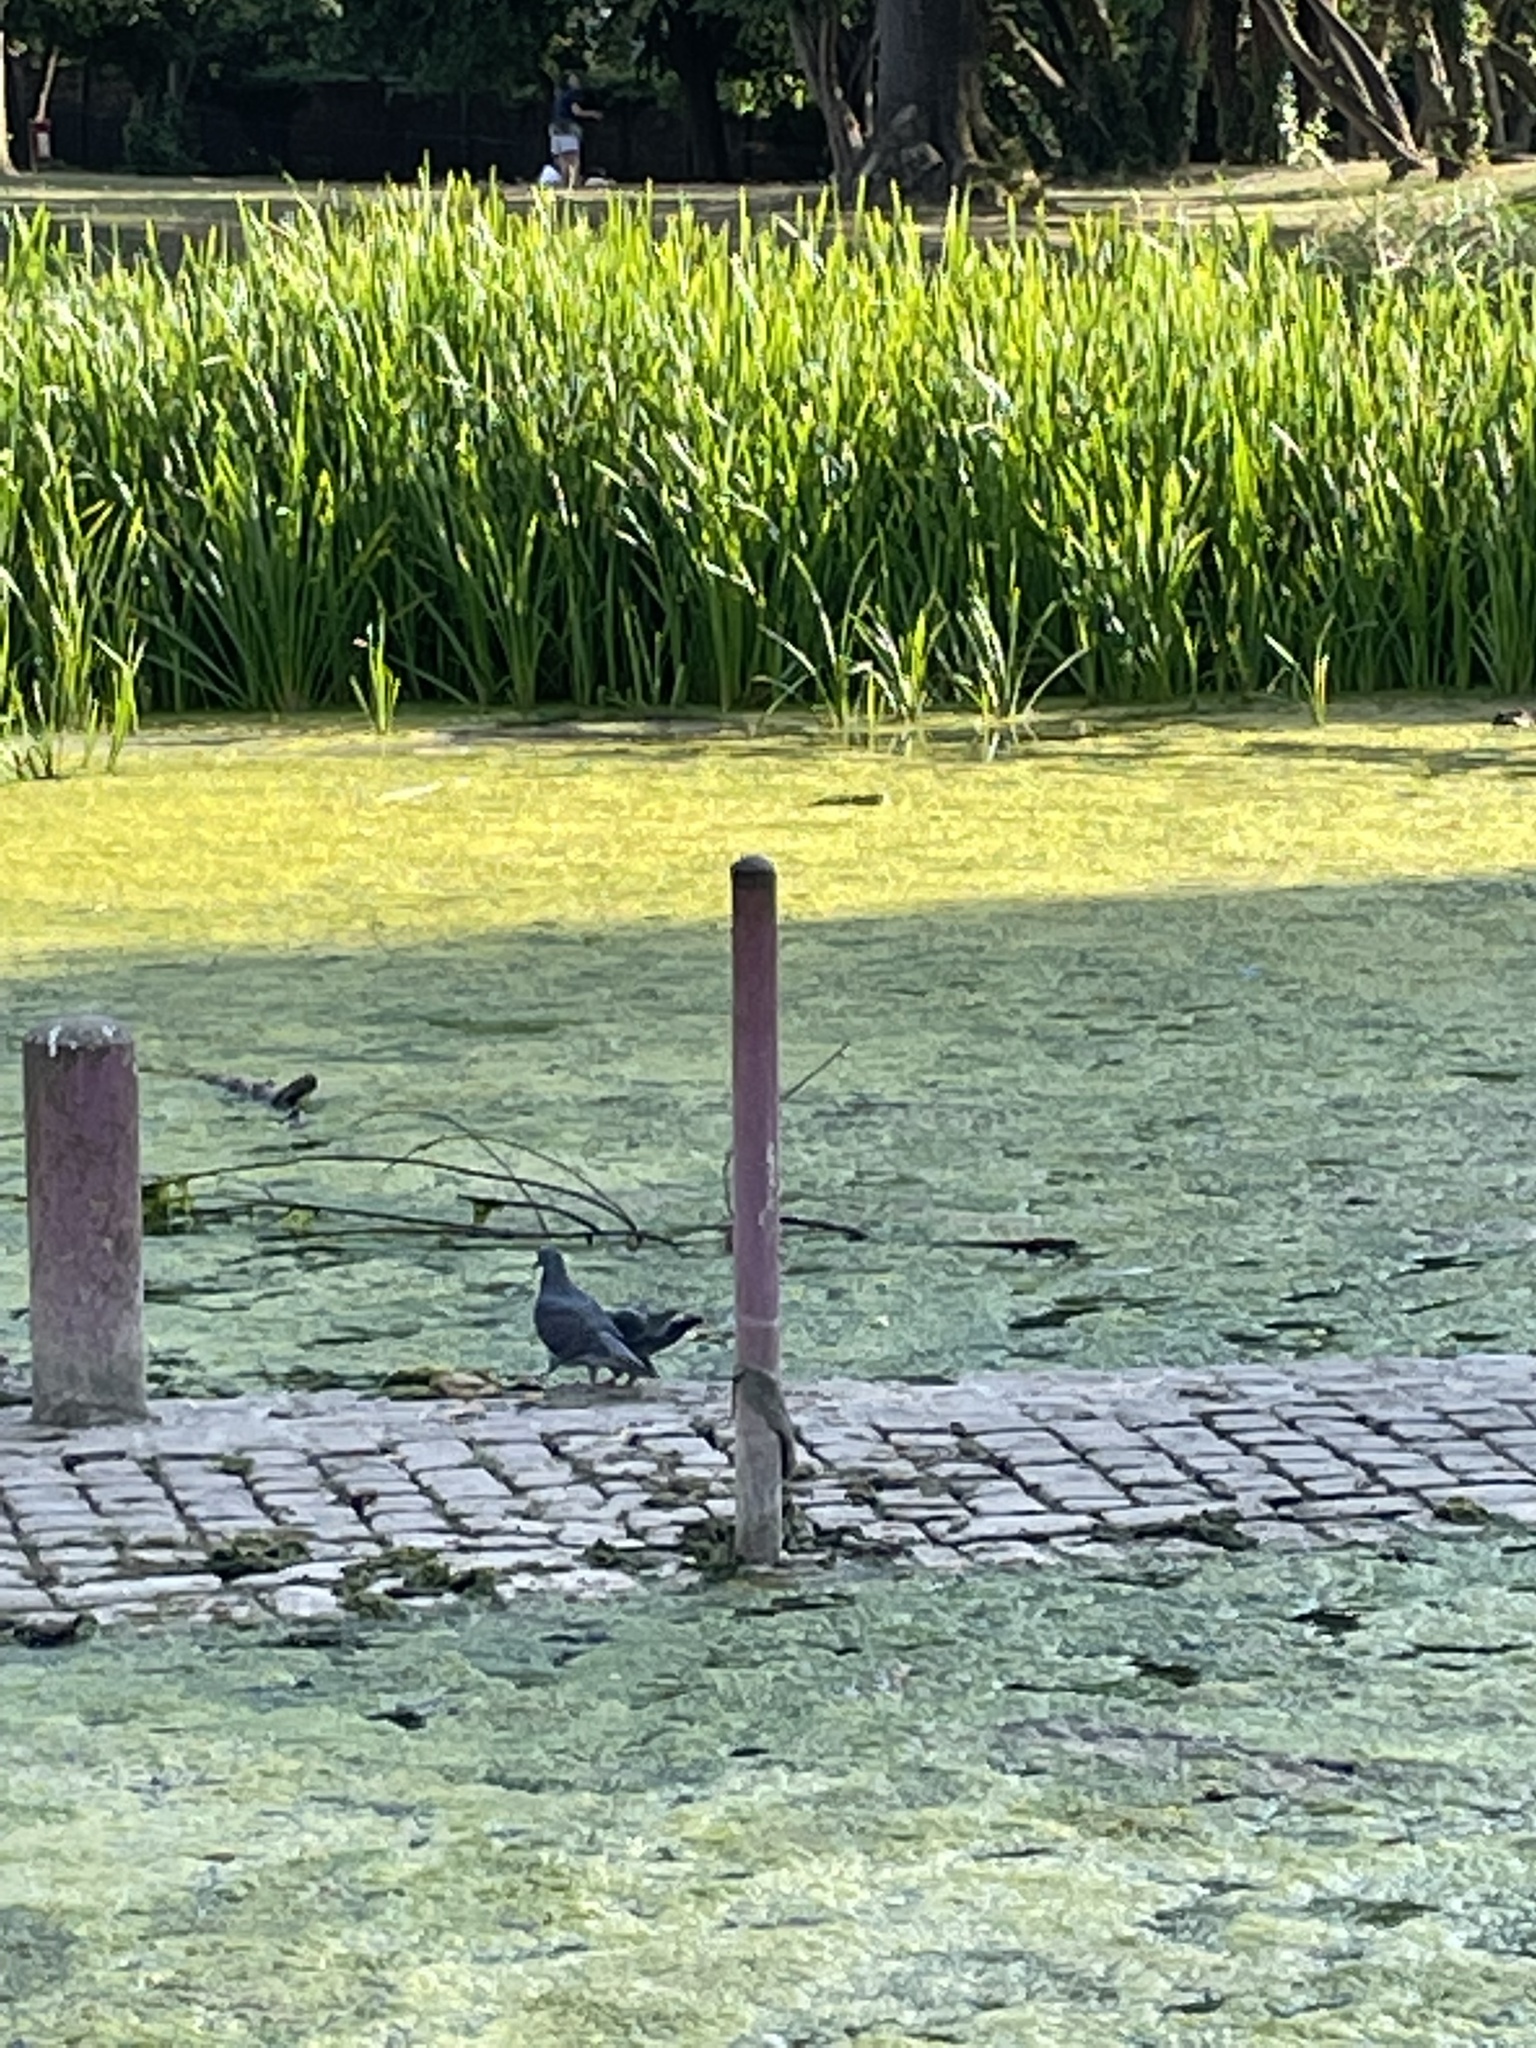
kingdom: Animalia
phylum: Chordata
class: Aves
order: Columbiformes
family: Columbidae
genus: Columba
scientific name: Columba livia
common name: Rock pigeon
